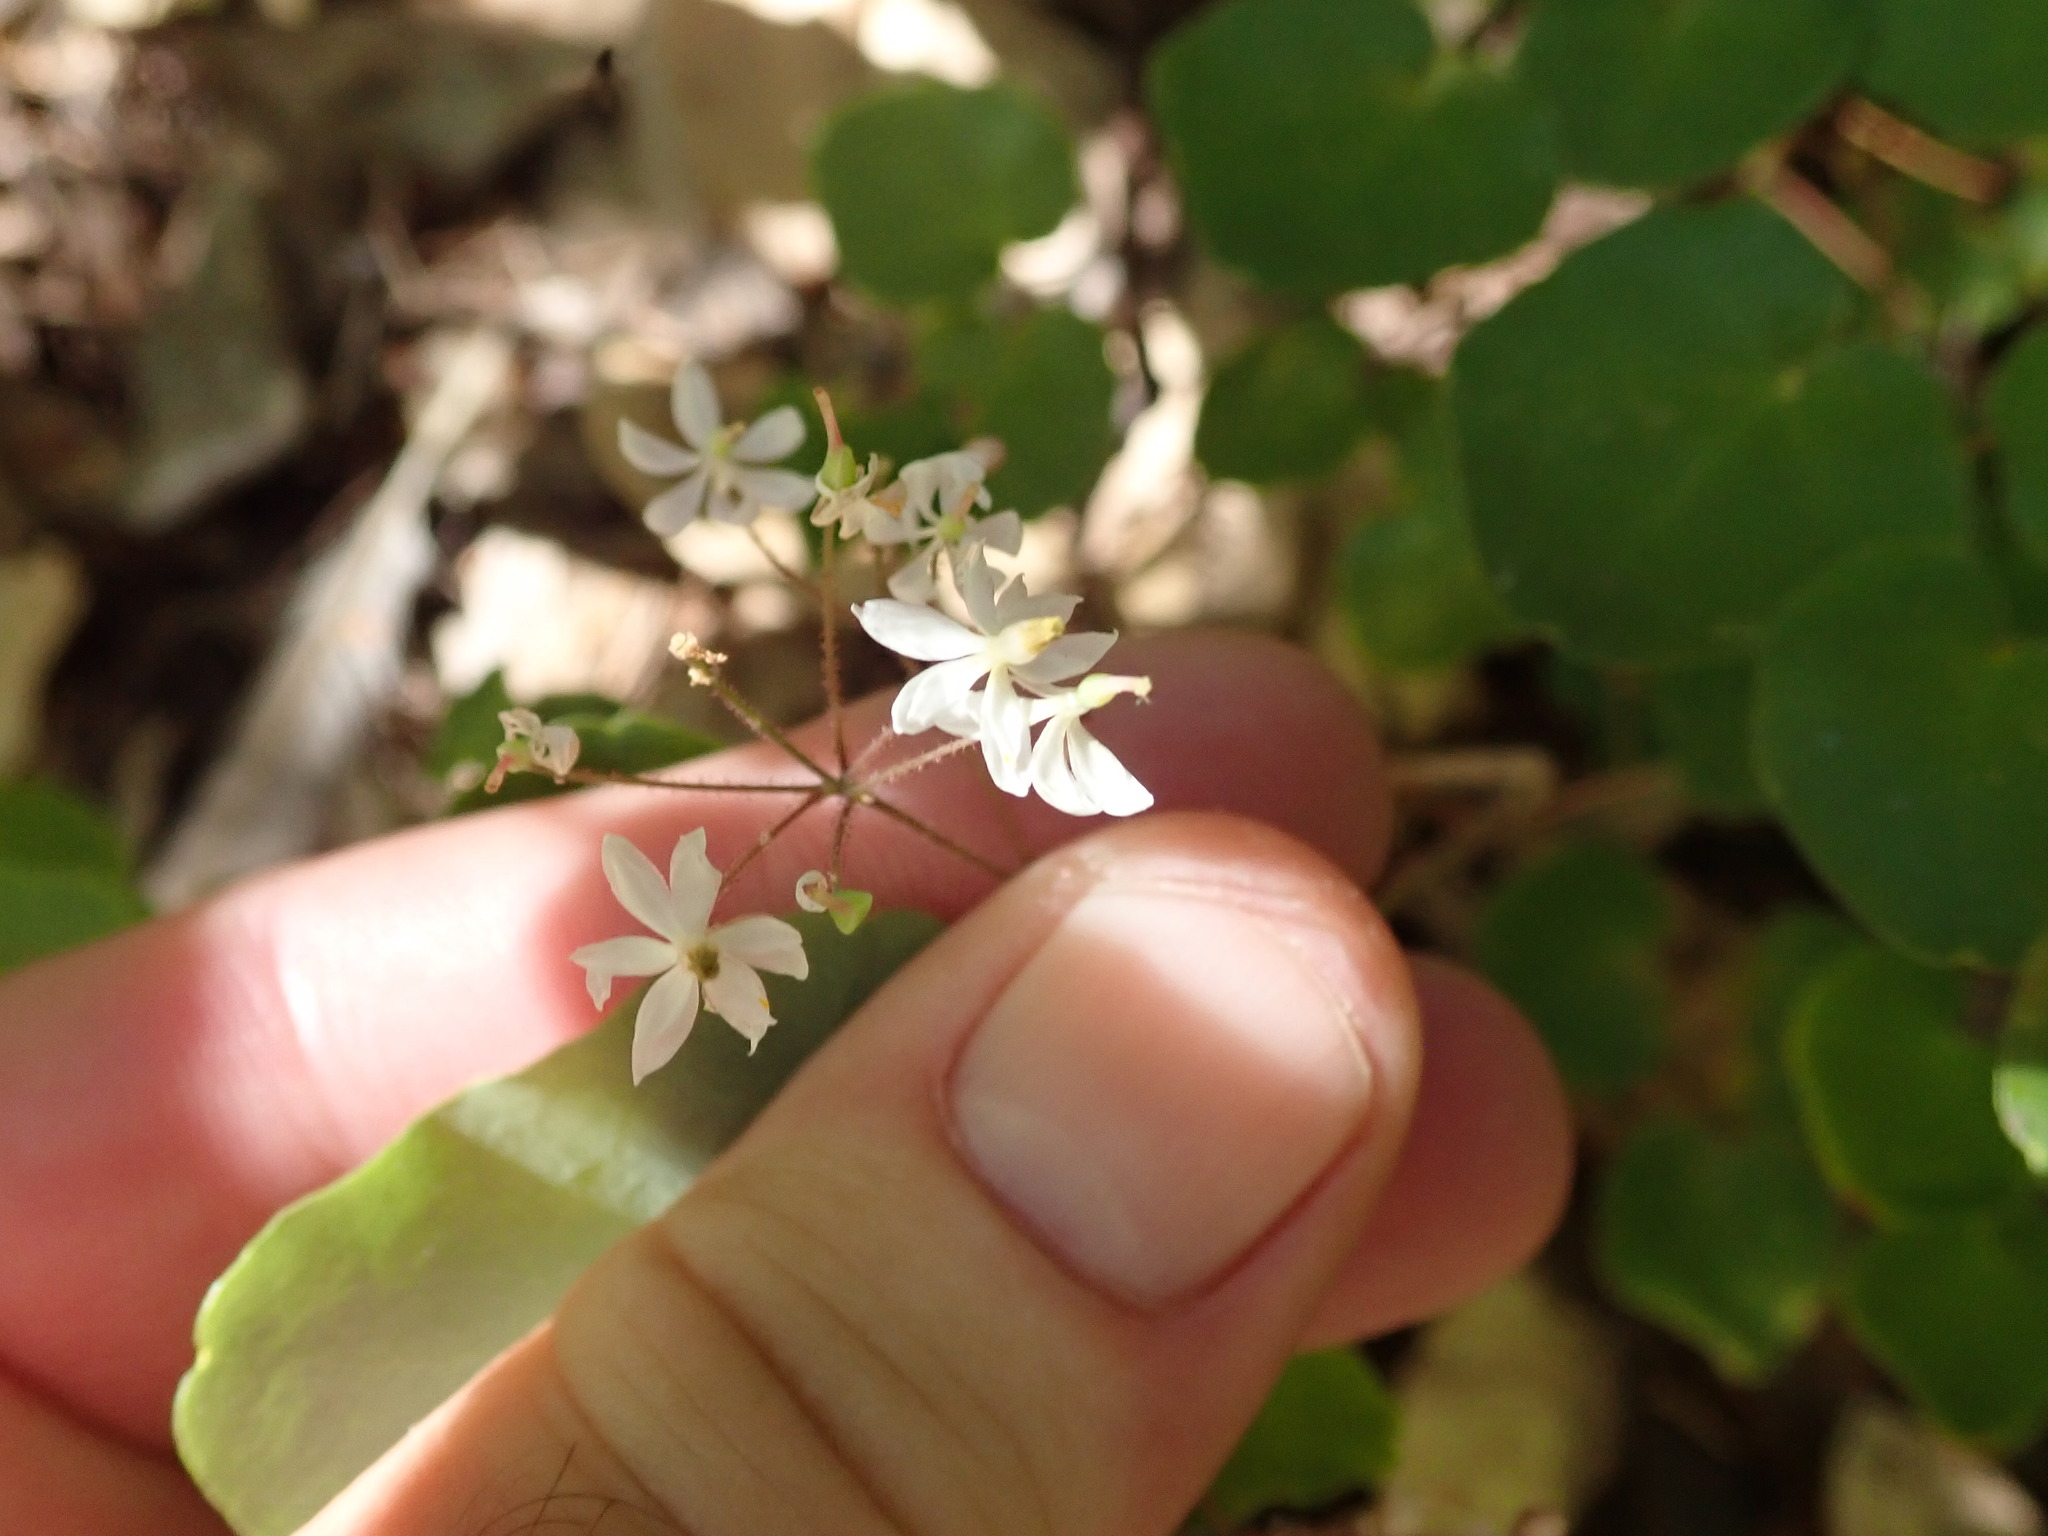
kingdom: Plantae
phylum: Tracheophyta
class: Magnoliopsida
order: Ranunculales
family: Berberidaceae
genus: Vancouveria
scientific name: Vancouveria planipetala
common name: Redwood-ivy
